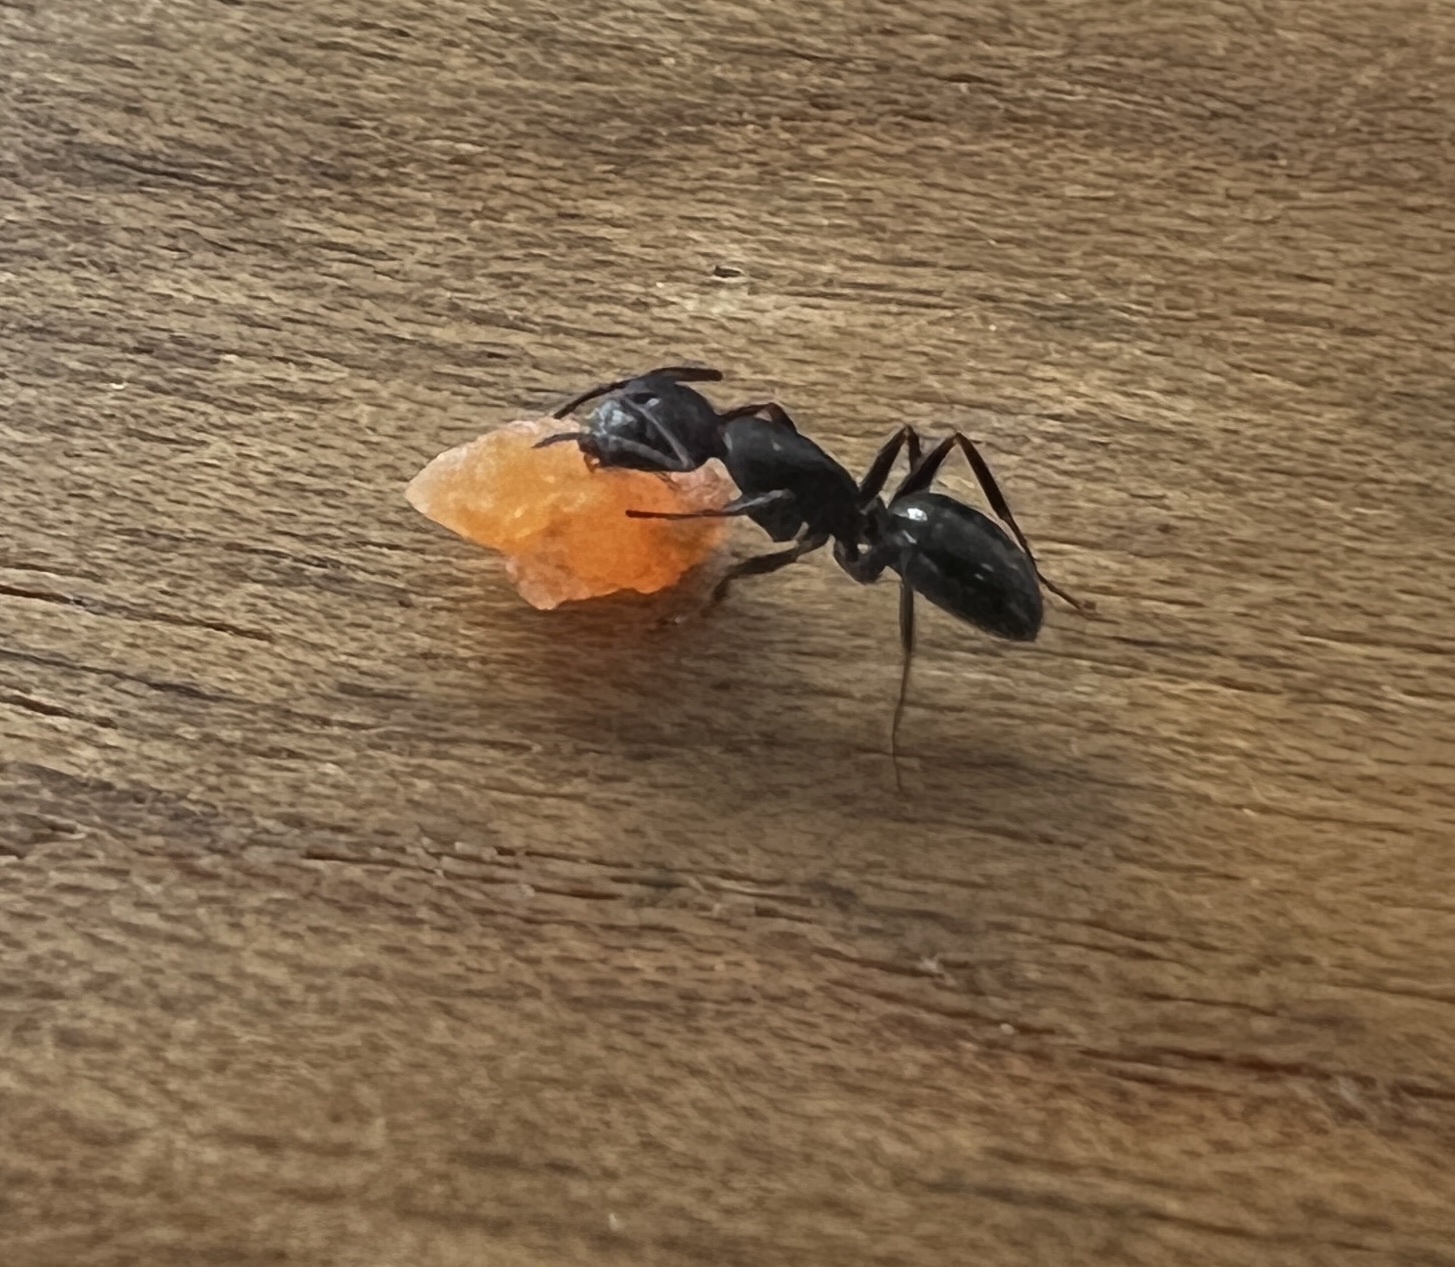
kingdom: Animalia
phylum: Arthropoda
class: Insecta
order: Hymenoptera
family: Formicidae
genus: Myrmentoma
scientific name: Myrmentoma
